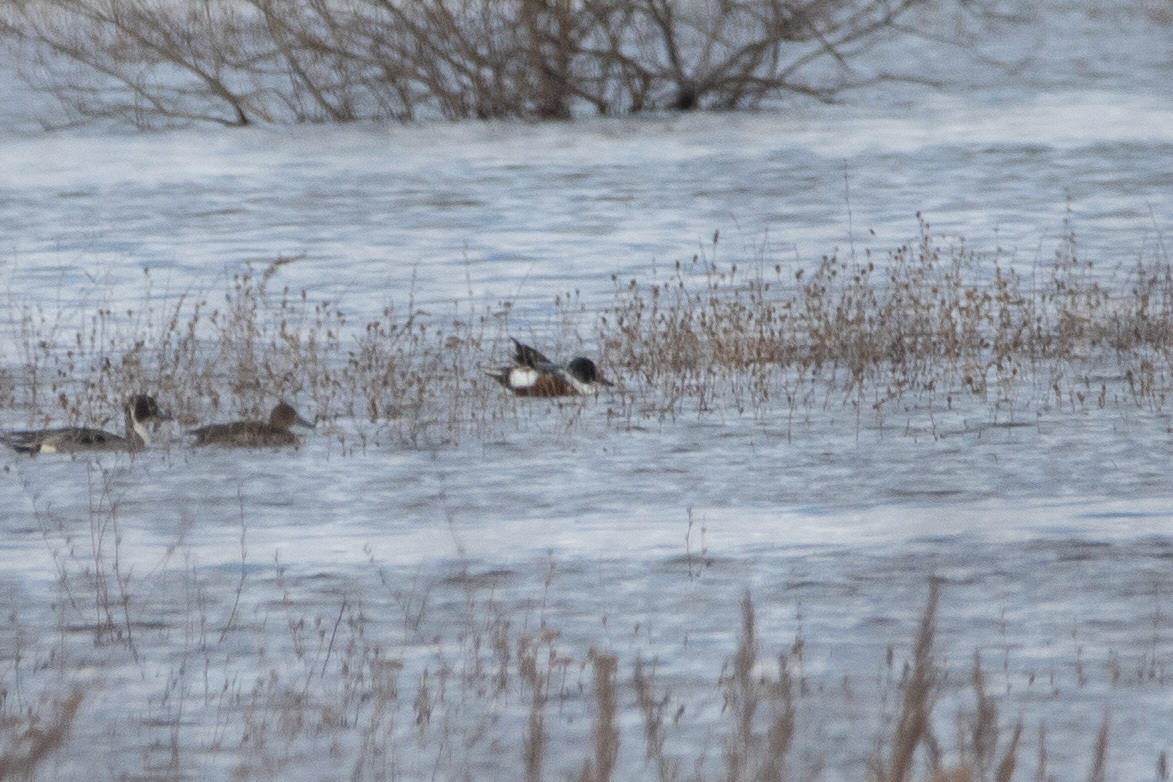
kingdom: Animalia
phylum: Chordata
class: Aves
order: Anseriformes
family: Anatidae
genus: Spatula
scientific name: Spatula clypeata
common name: Northern shoveler
